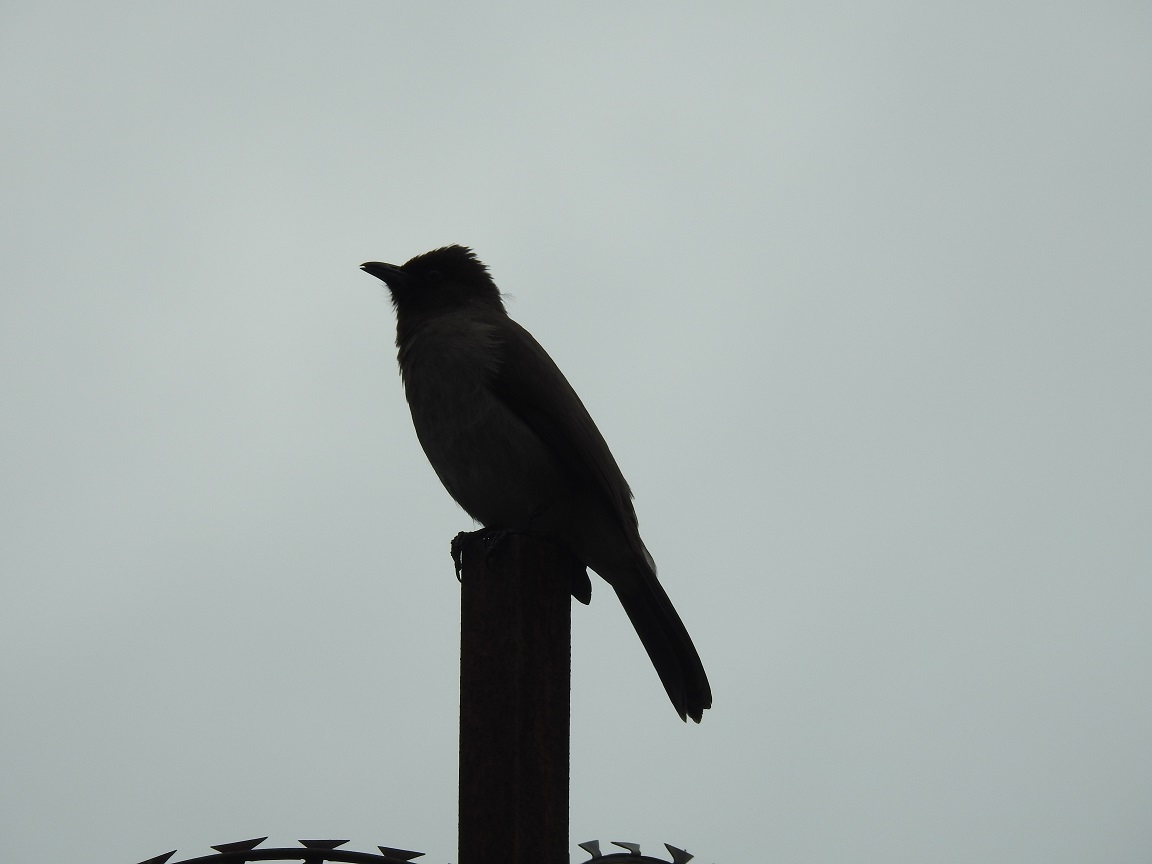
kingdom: Animalia
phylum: Chordata
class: Aves
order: Passeriformes
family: Pycnonotidae
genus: Pycnonotus
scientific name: Pycnonotus barbatus
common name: Common bulbul
